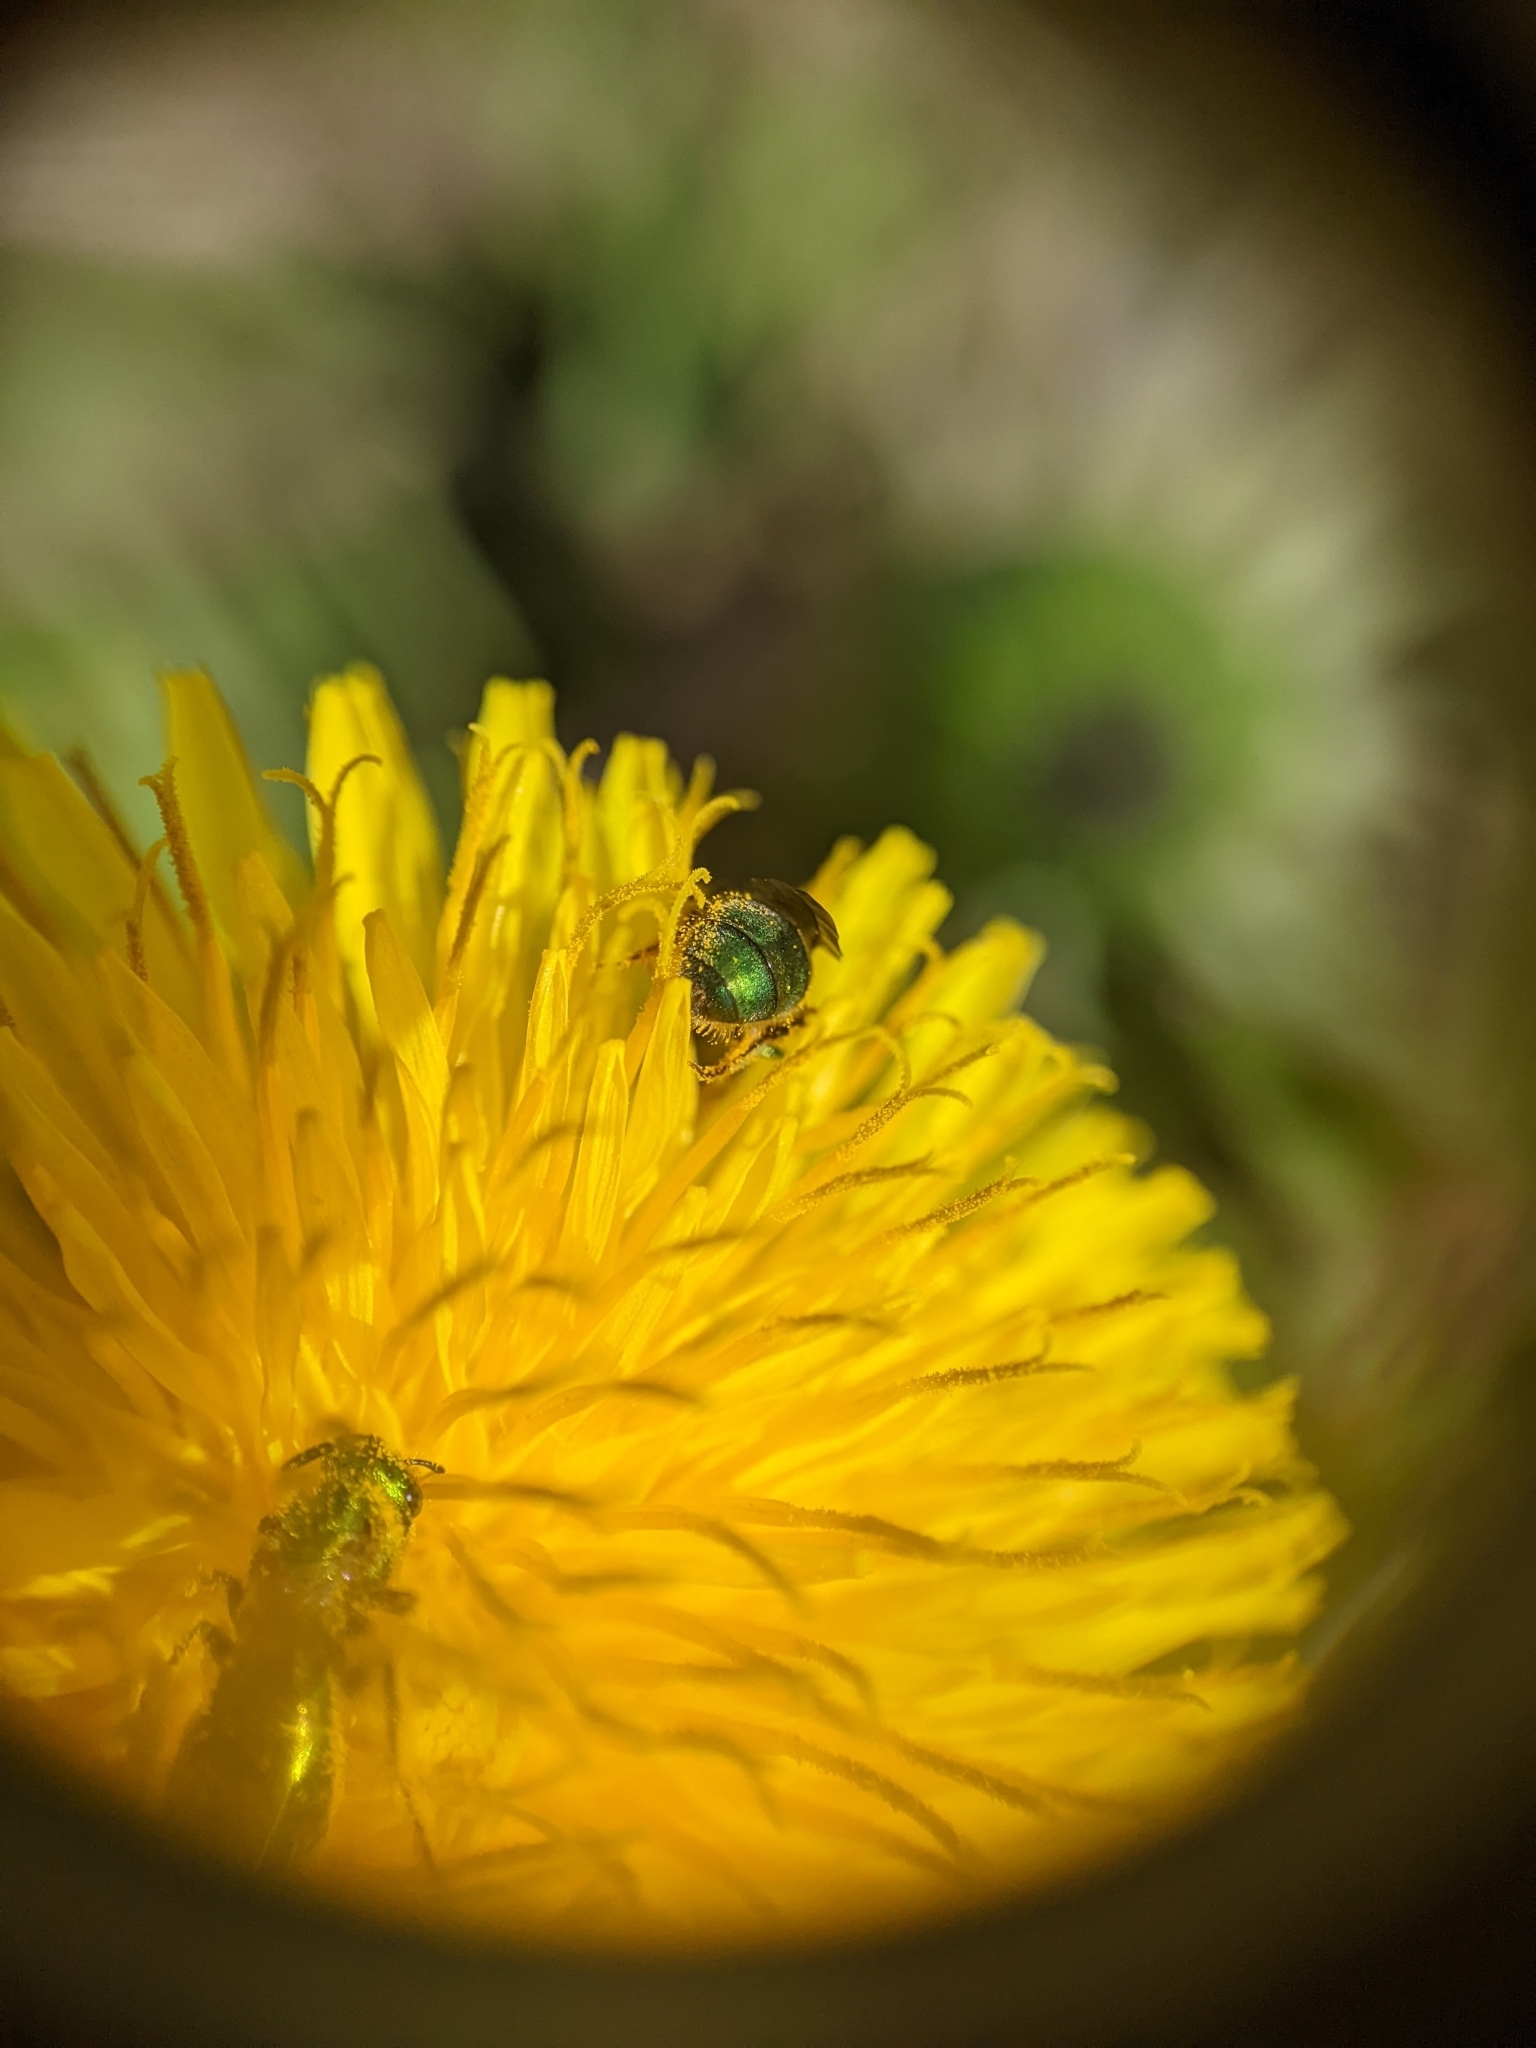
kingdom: Animalia
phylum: Arthropoda
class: Insecta
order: Hymenoptera
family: Halictidae
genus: Augochlorella
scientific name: Augochlorella aurata
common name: Golden sweat bee
